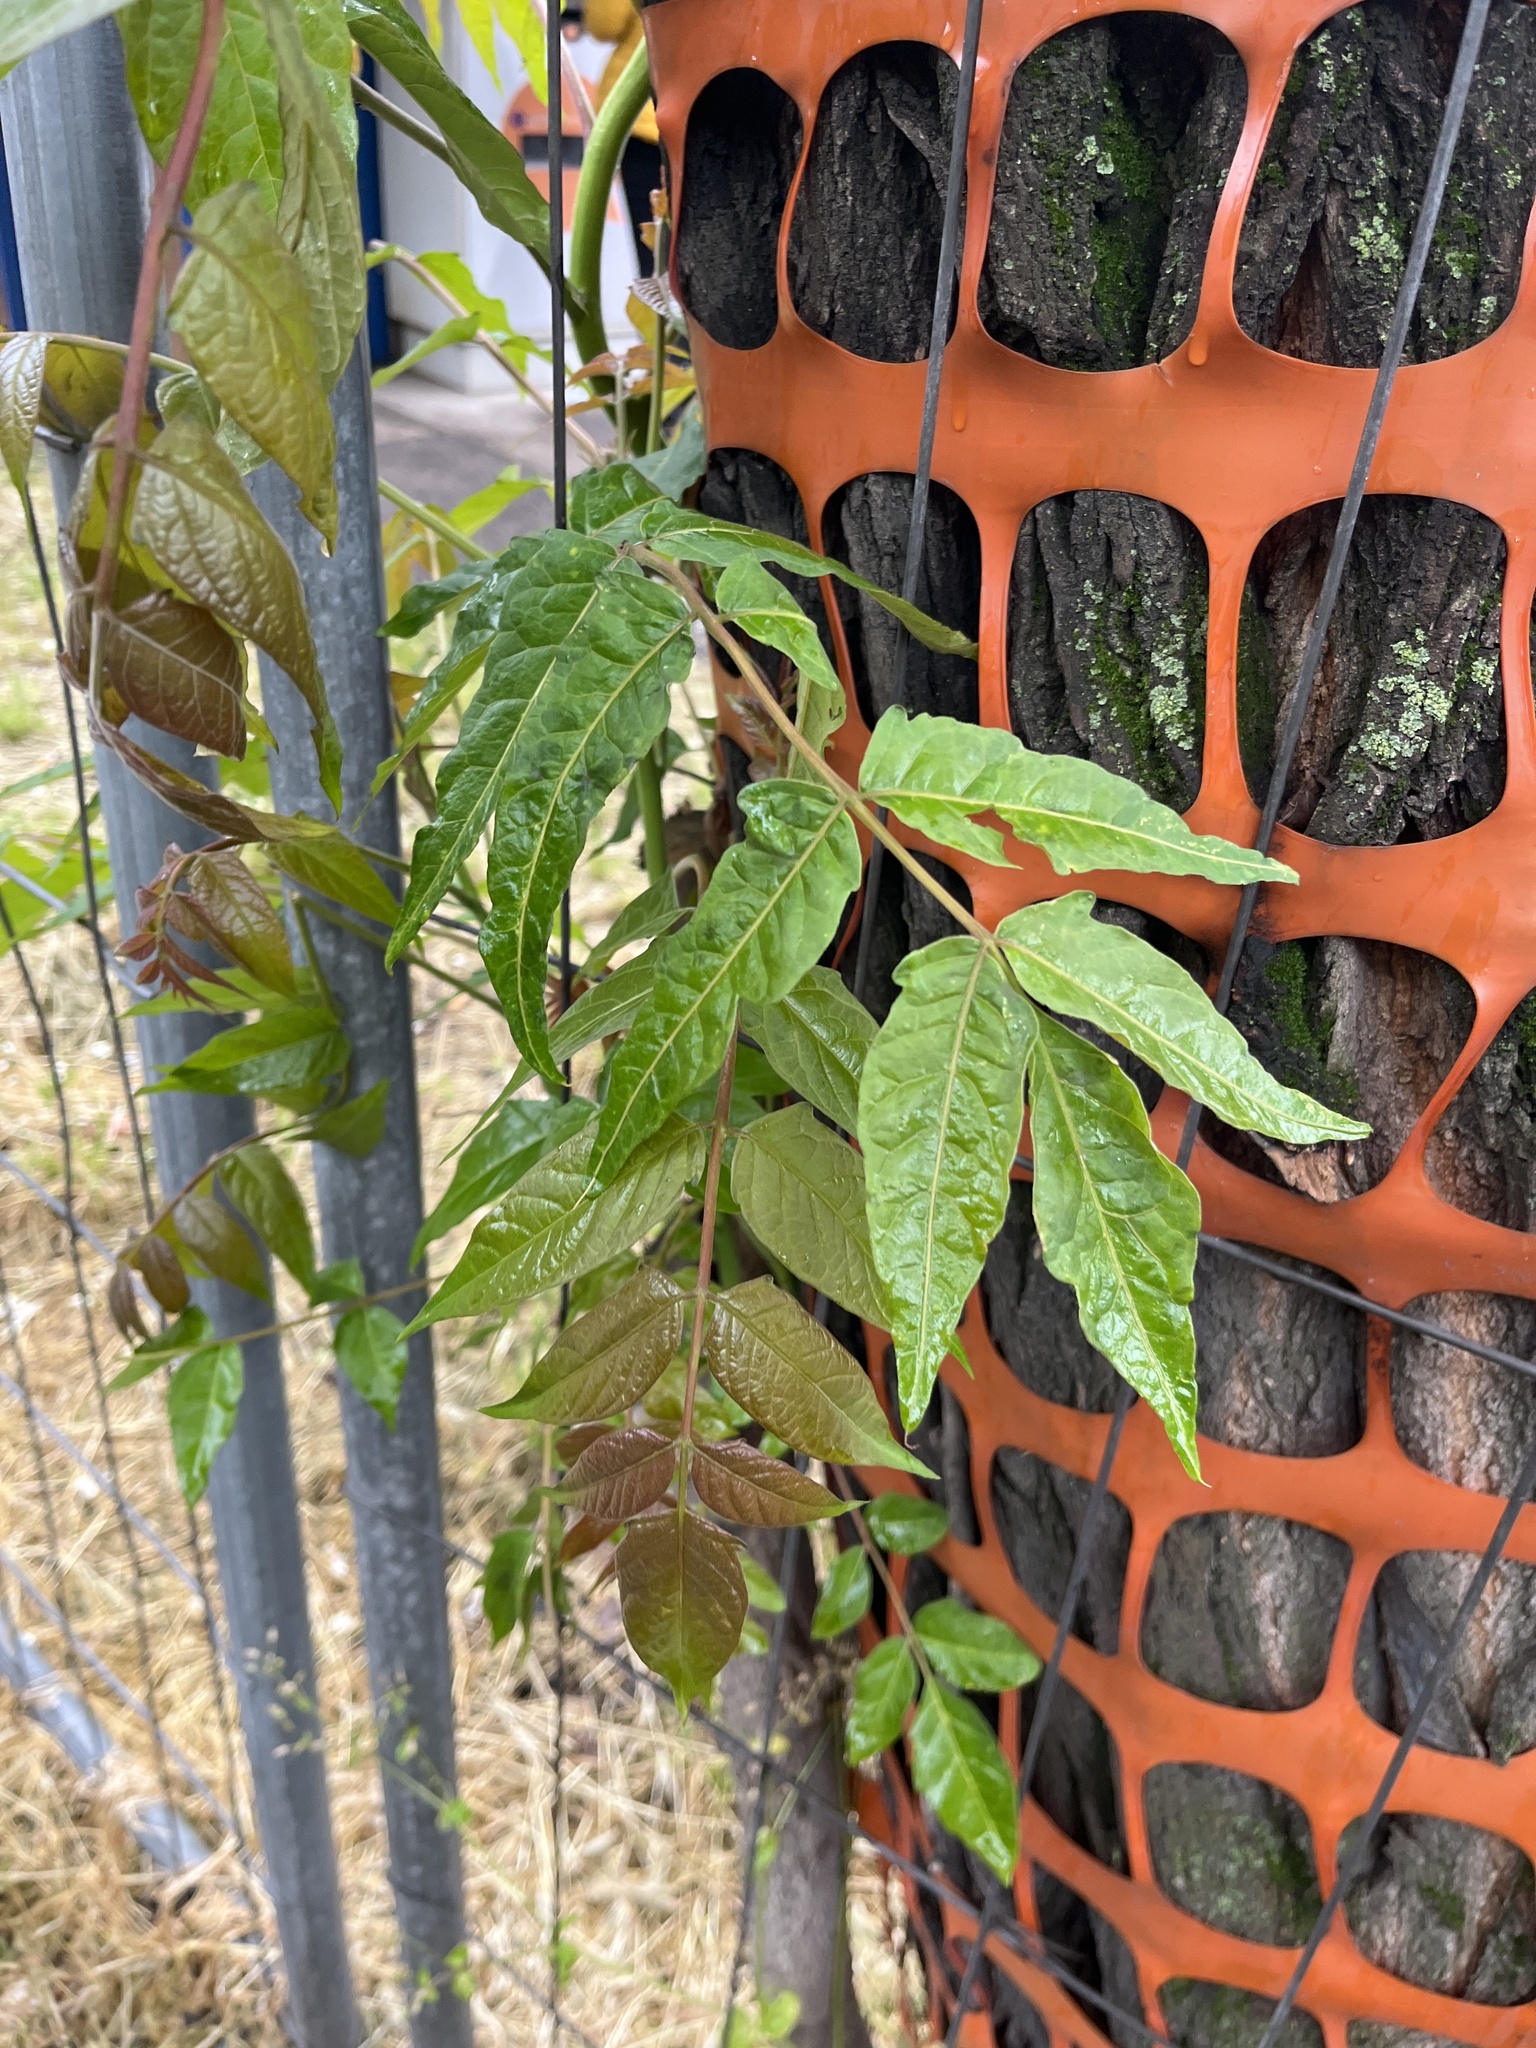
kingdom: Plantae
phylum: Tracheophyta
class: Magnoliopsida
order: Sapindales
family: Simaroubaceae
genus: Ailanthus
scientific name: Ailanthus altissima
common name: Tree-of-heaven
